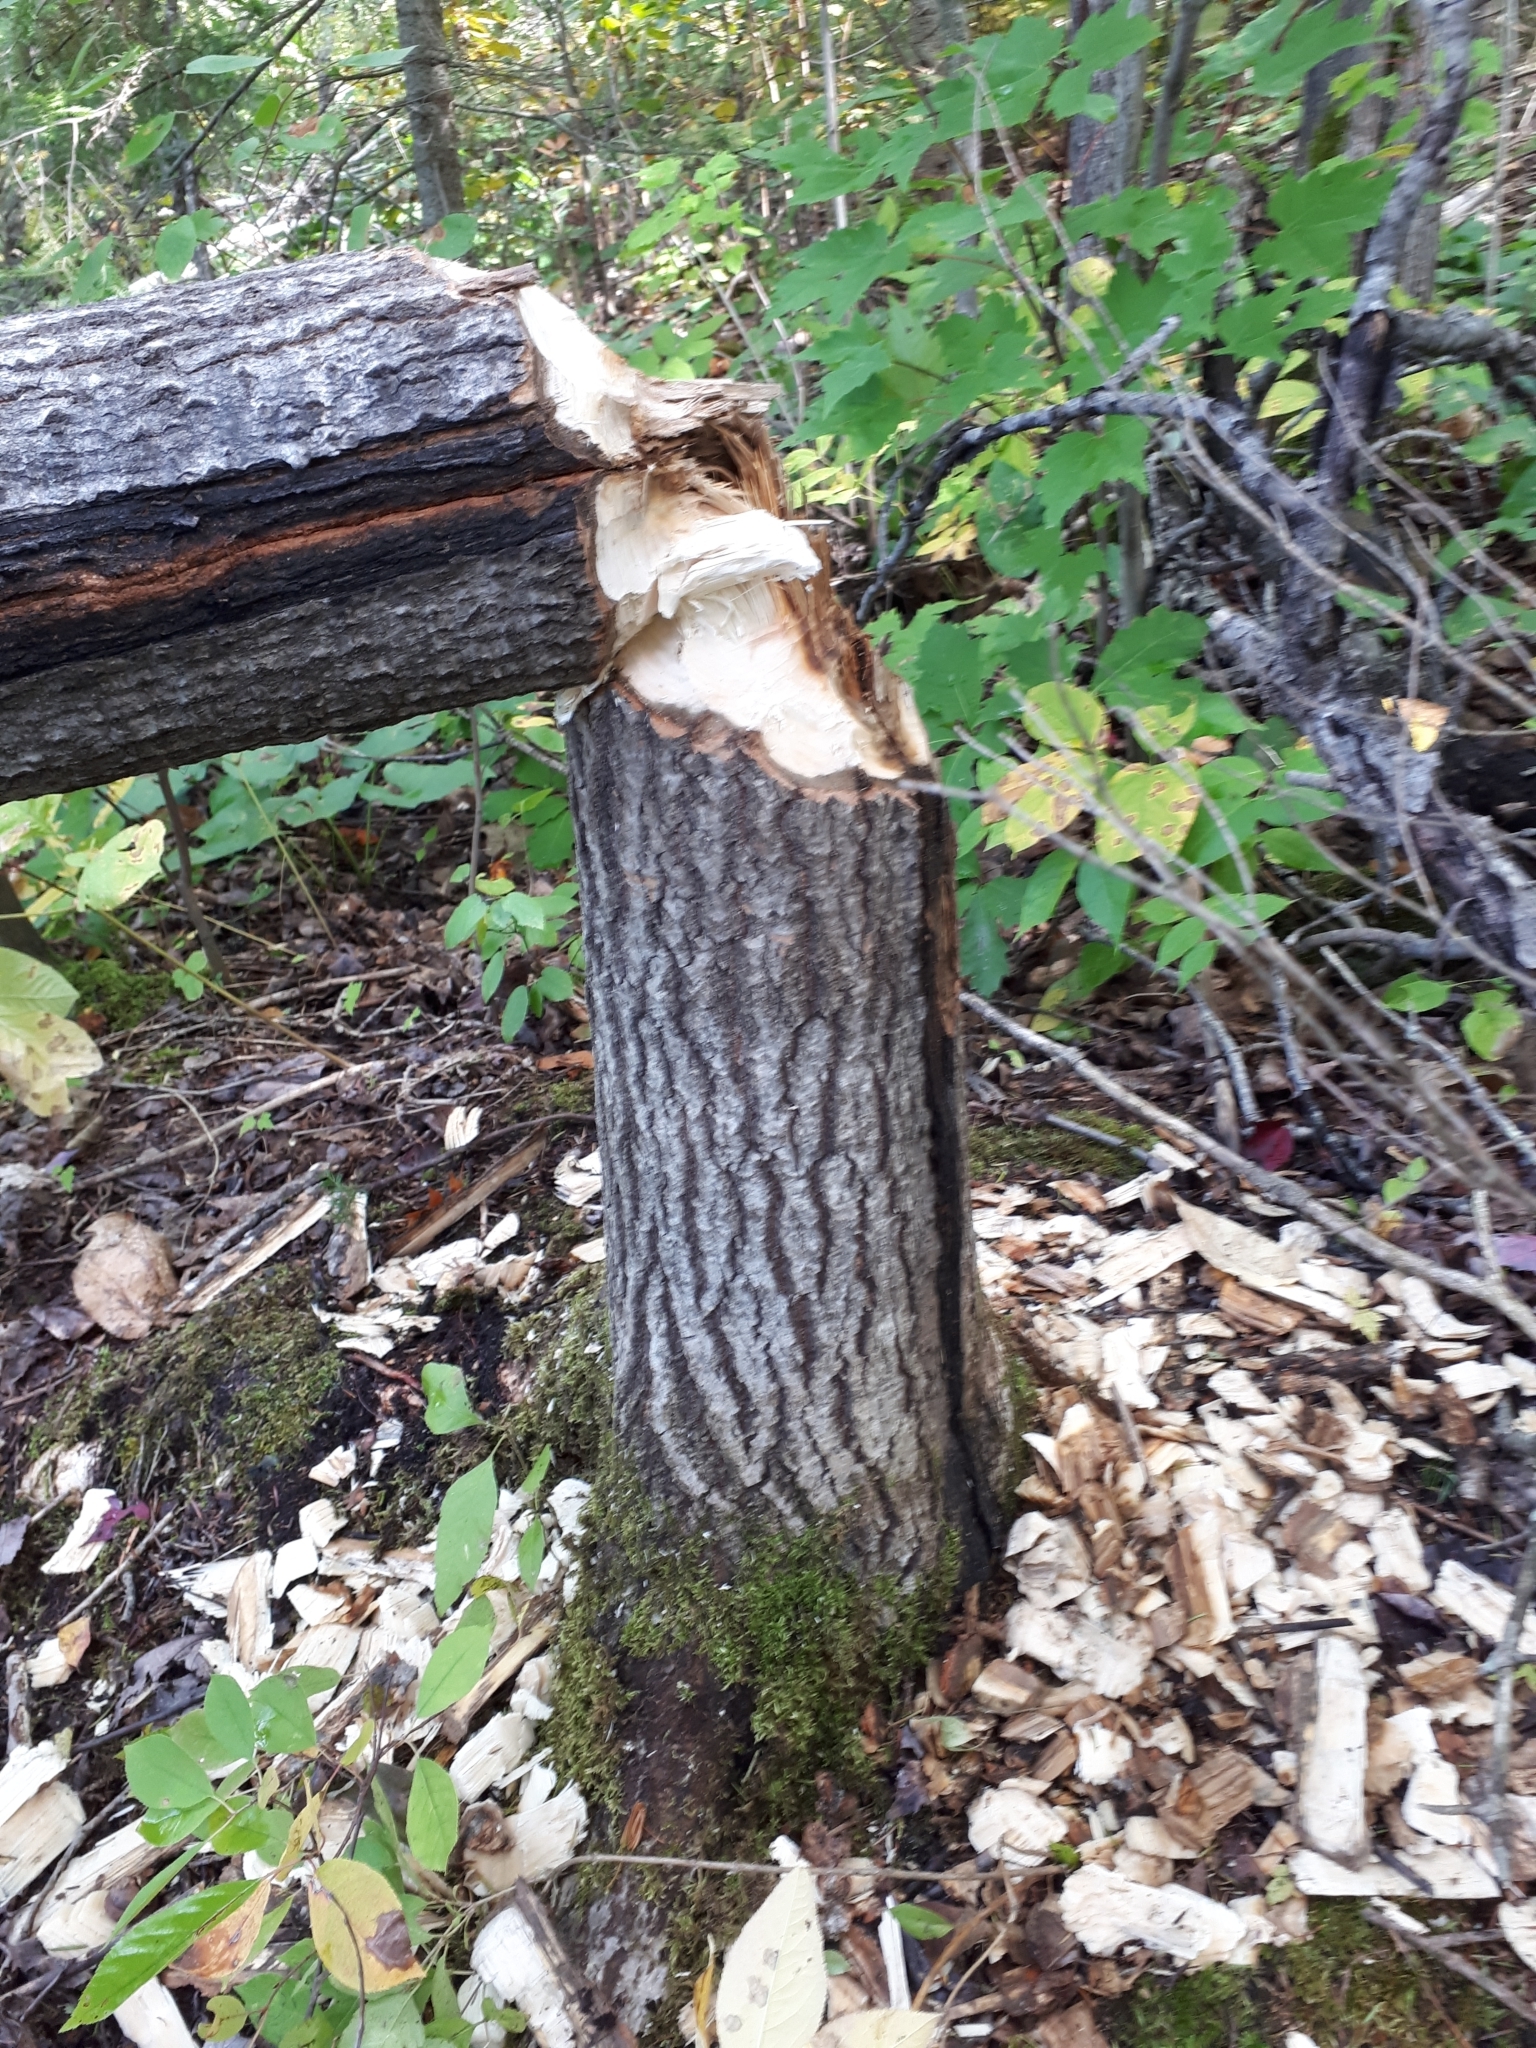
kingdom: Animalia
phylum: Chordata
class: Mammalia
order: Rodentia
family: Castoridae
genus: Castor
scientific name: Castor canadensis
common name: American beaver
